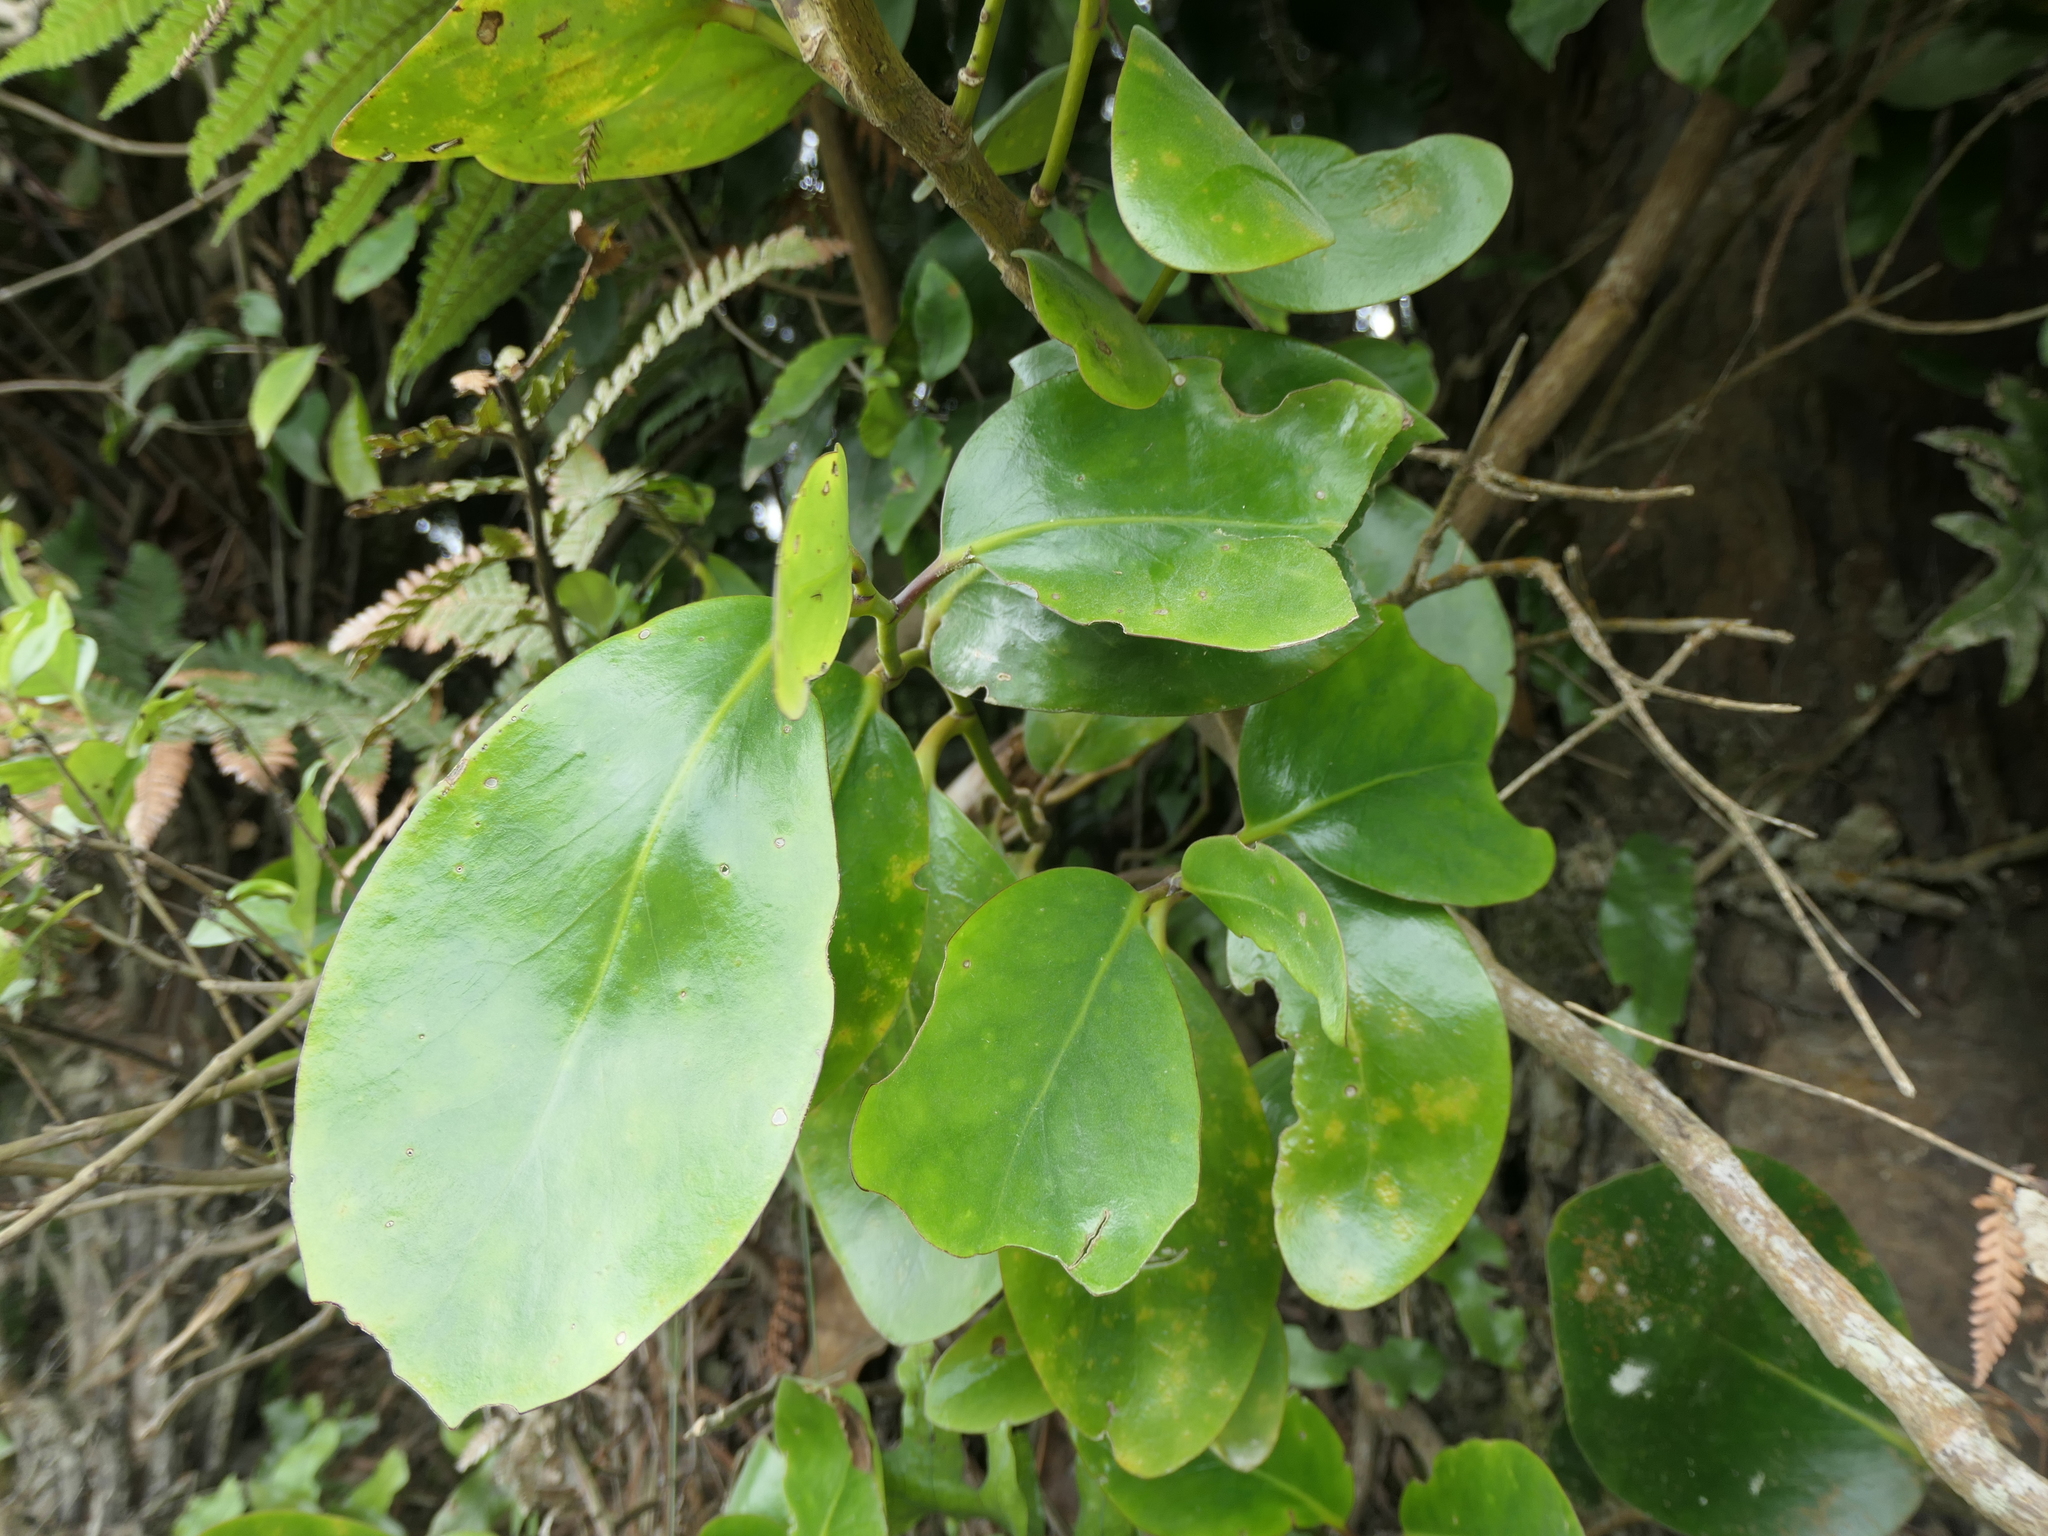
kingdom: Plantae
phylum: Tracheophyta
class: Magnoliopsida
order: Apiales
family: Griseliniaceae
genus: Griselinia
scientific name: Griselinia lucida
